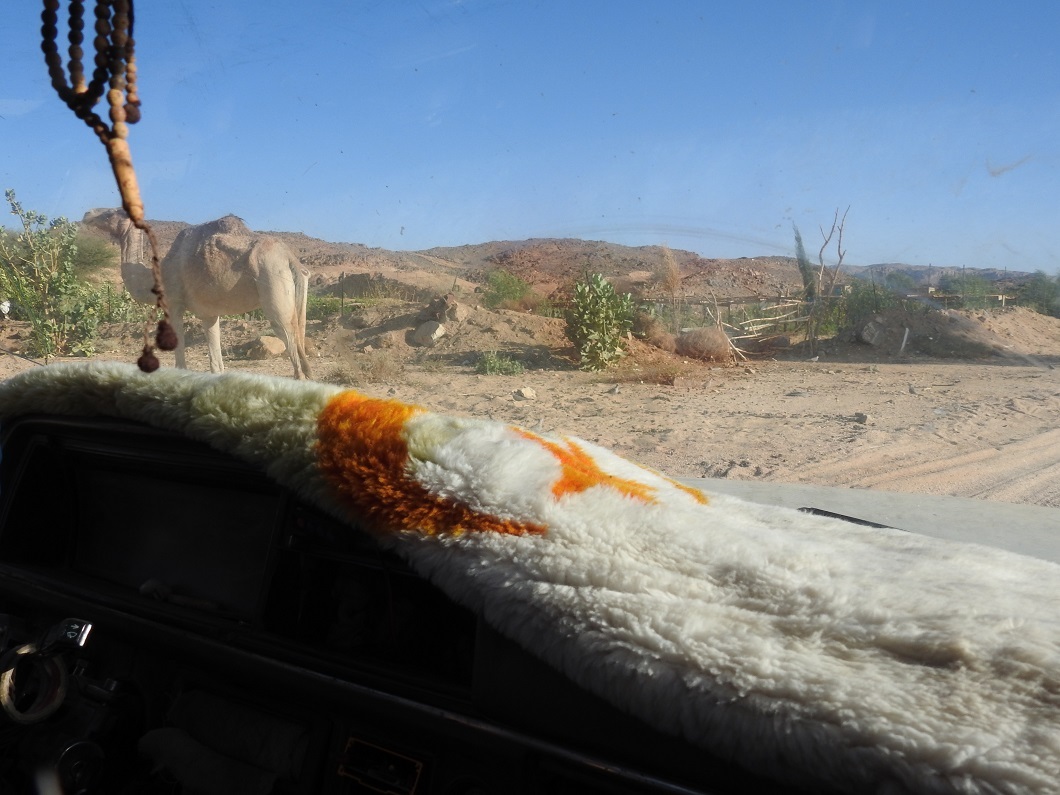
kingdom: Animalia
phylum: Chordata
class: Mammalia
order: Artiodactyla
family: Camelidae
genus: Camelus
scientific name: Camelus dromedarius
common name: One-humped camel
